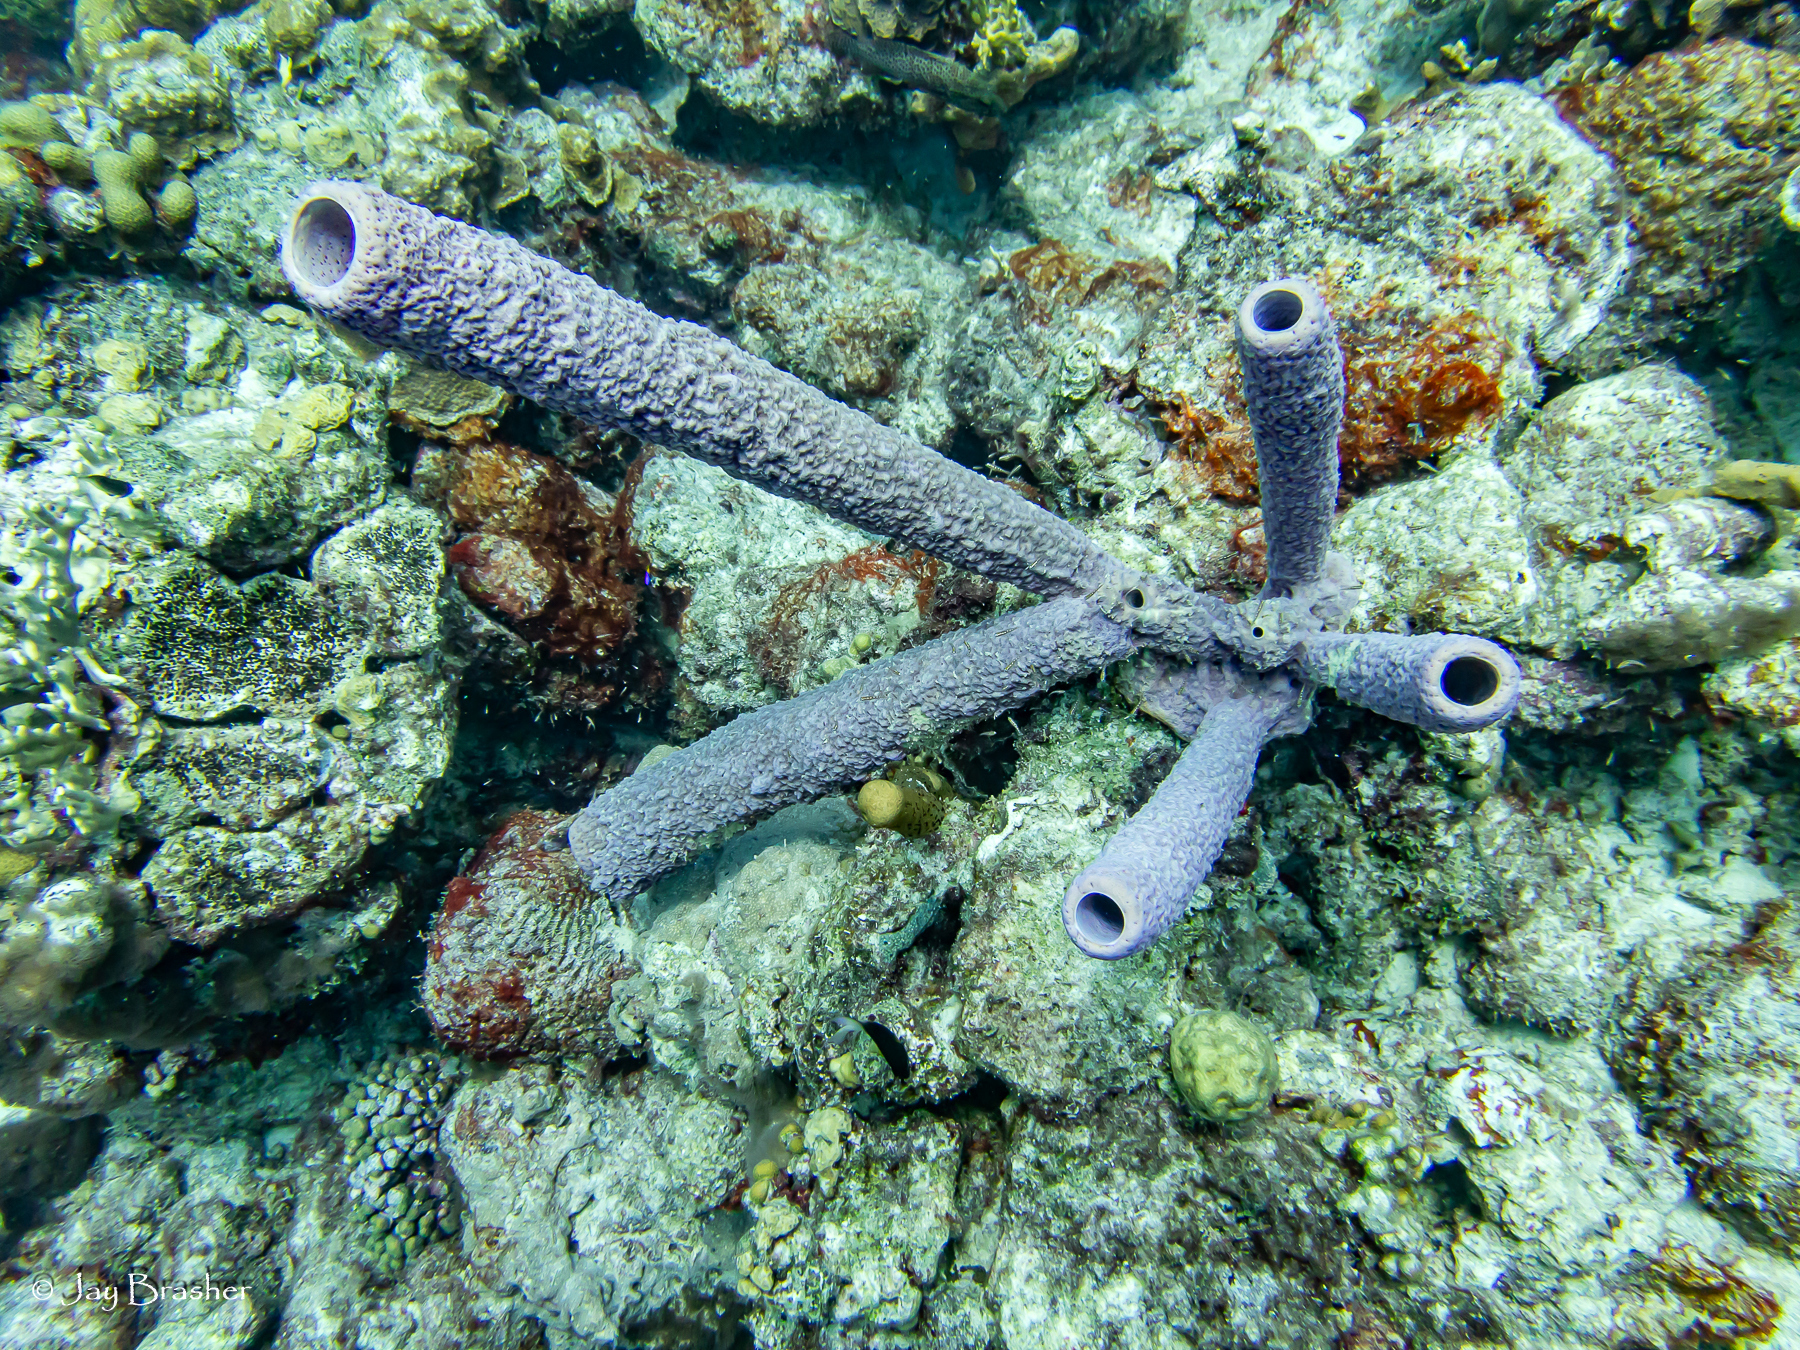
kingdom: Animalia
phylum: Porifera
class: Demospongiae
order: Verongiida
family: Aplysinidae
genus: Aplysina
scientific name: Aplysina archeri
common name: Stove-pipe sponge
